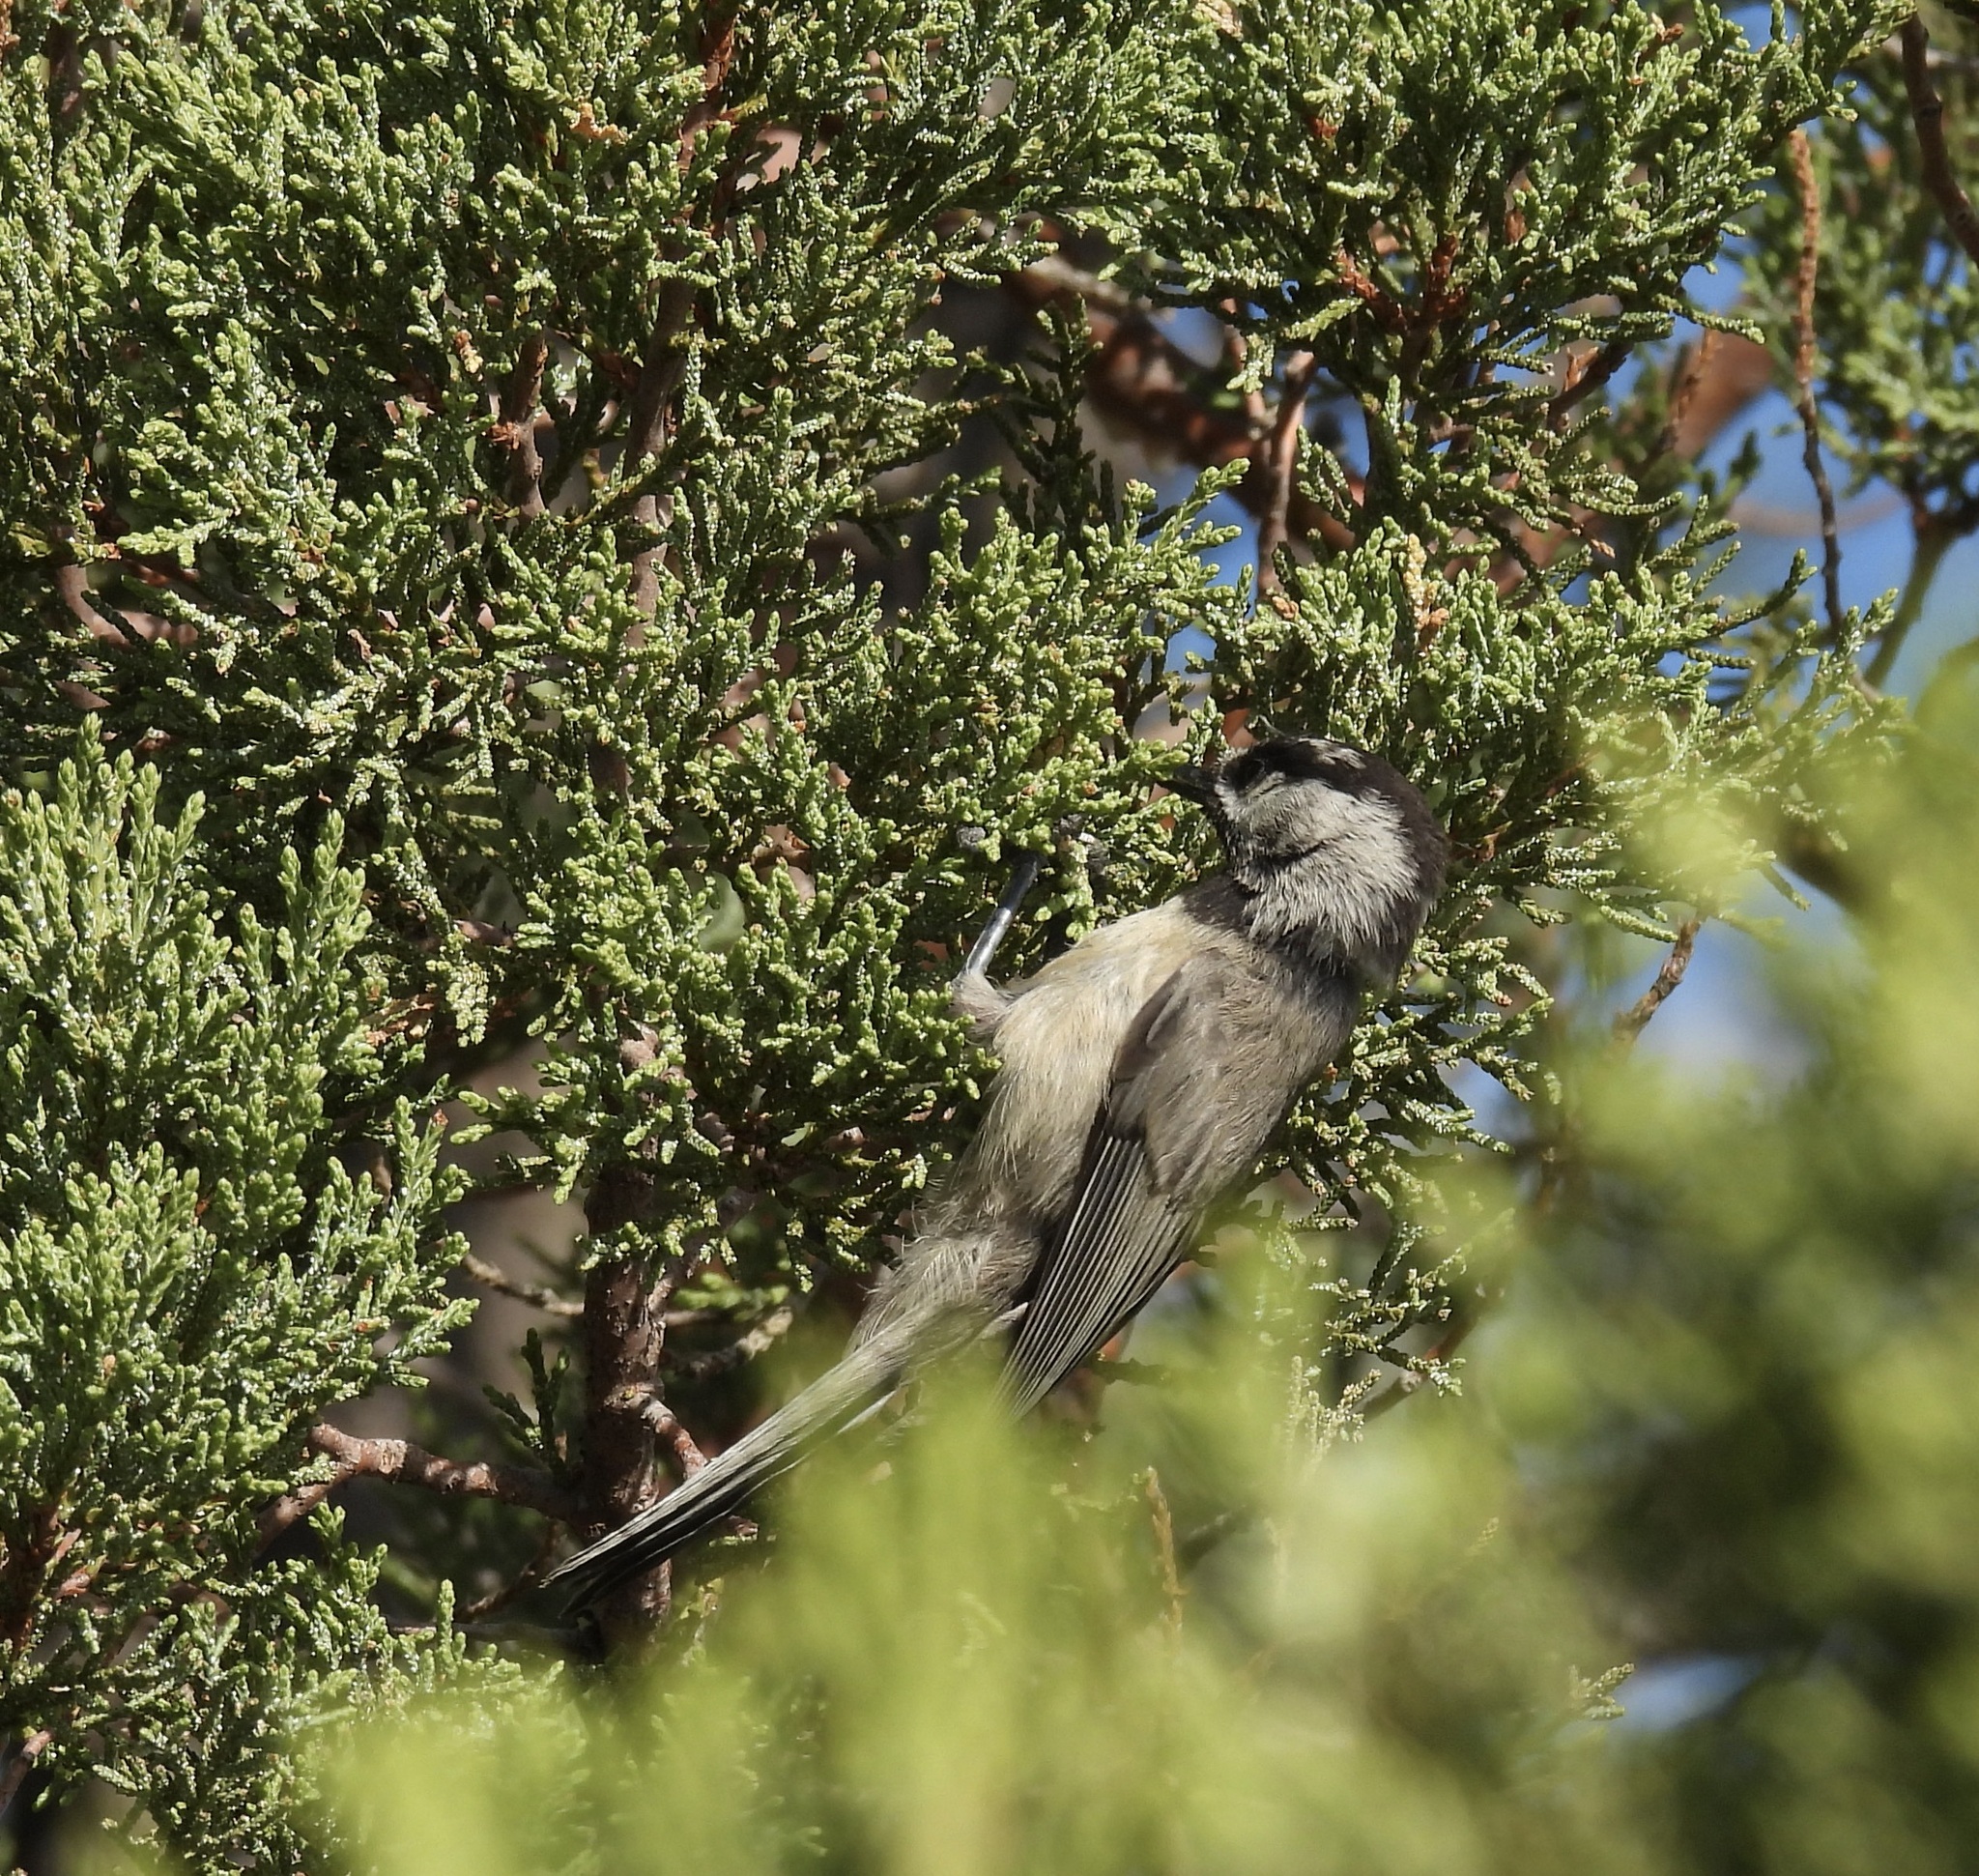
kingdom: Animalia
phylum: Chordata
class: Aves
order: Passeriformes
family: Paridae
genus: Poecile
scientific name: Poecile gambeli
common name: Mountain chickadee
